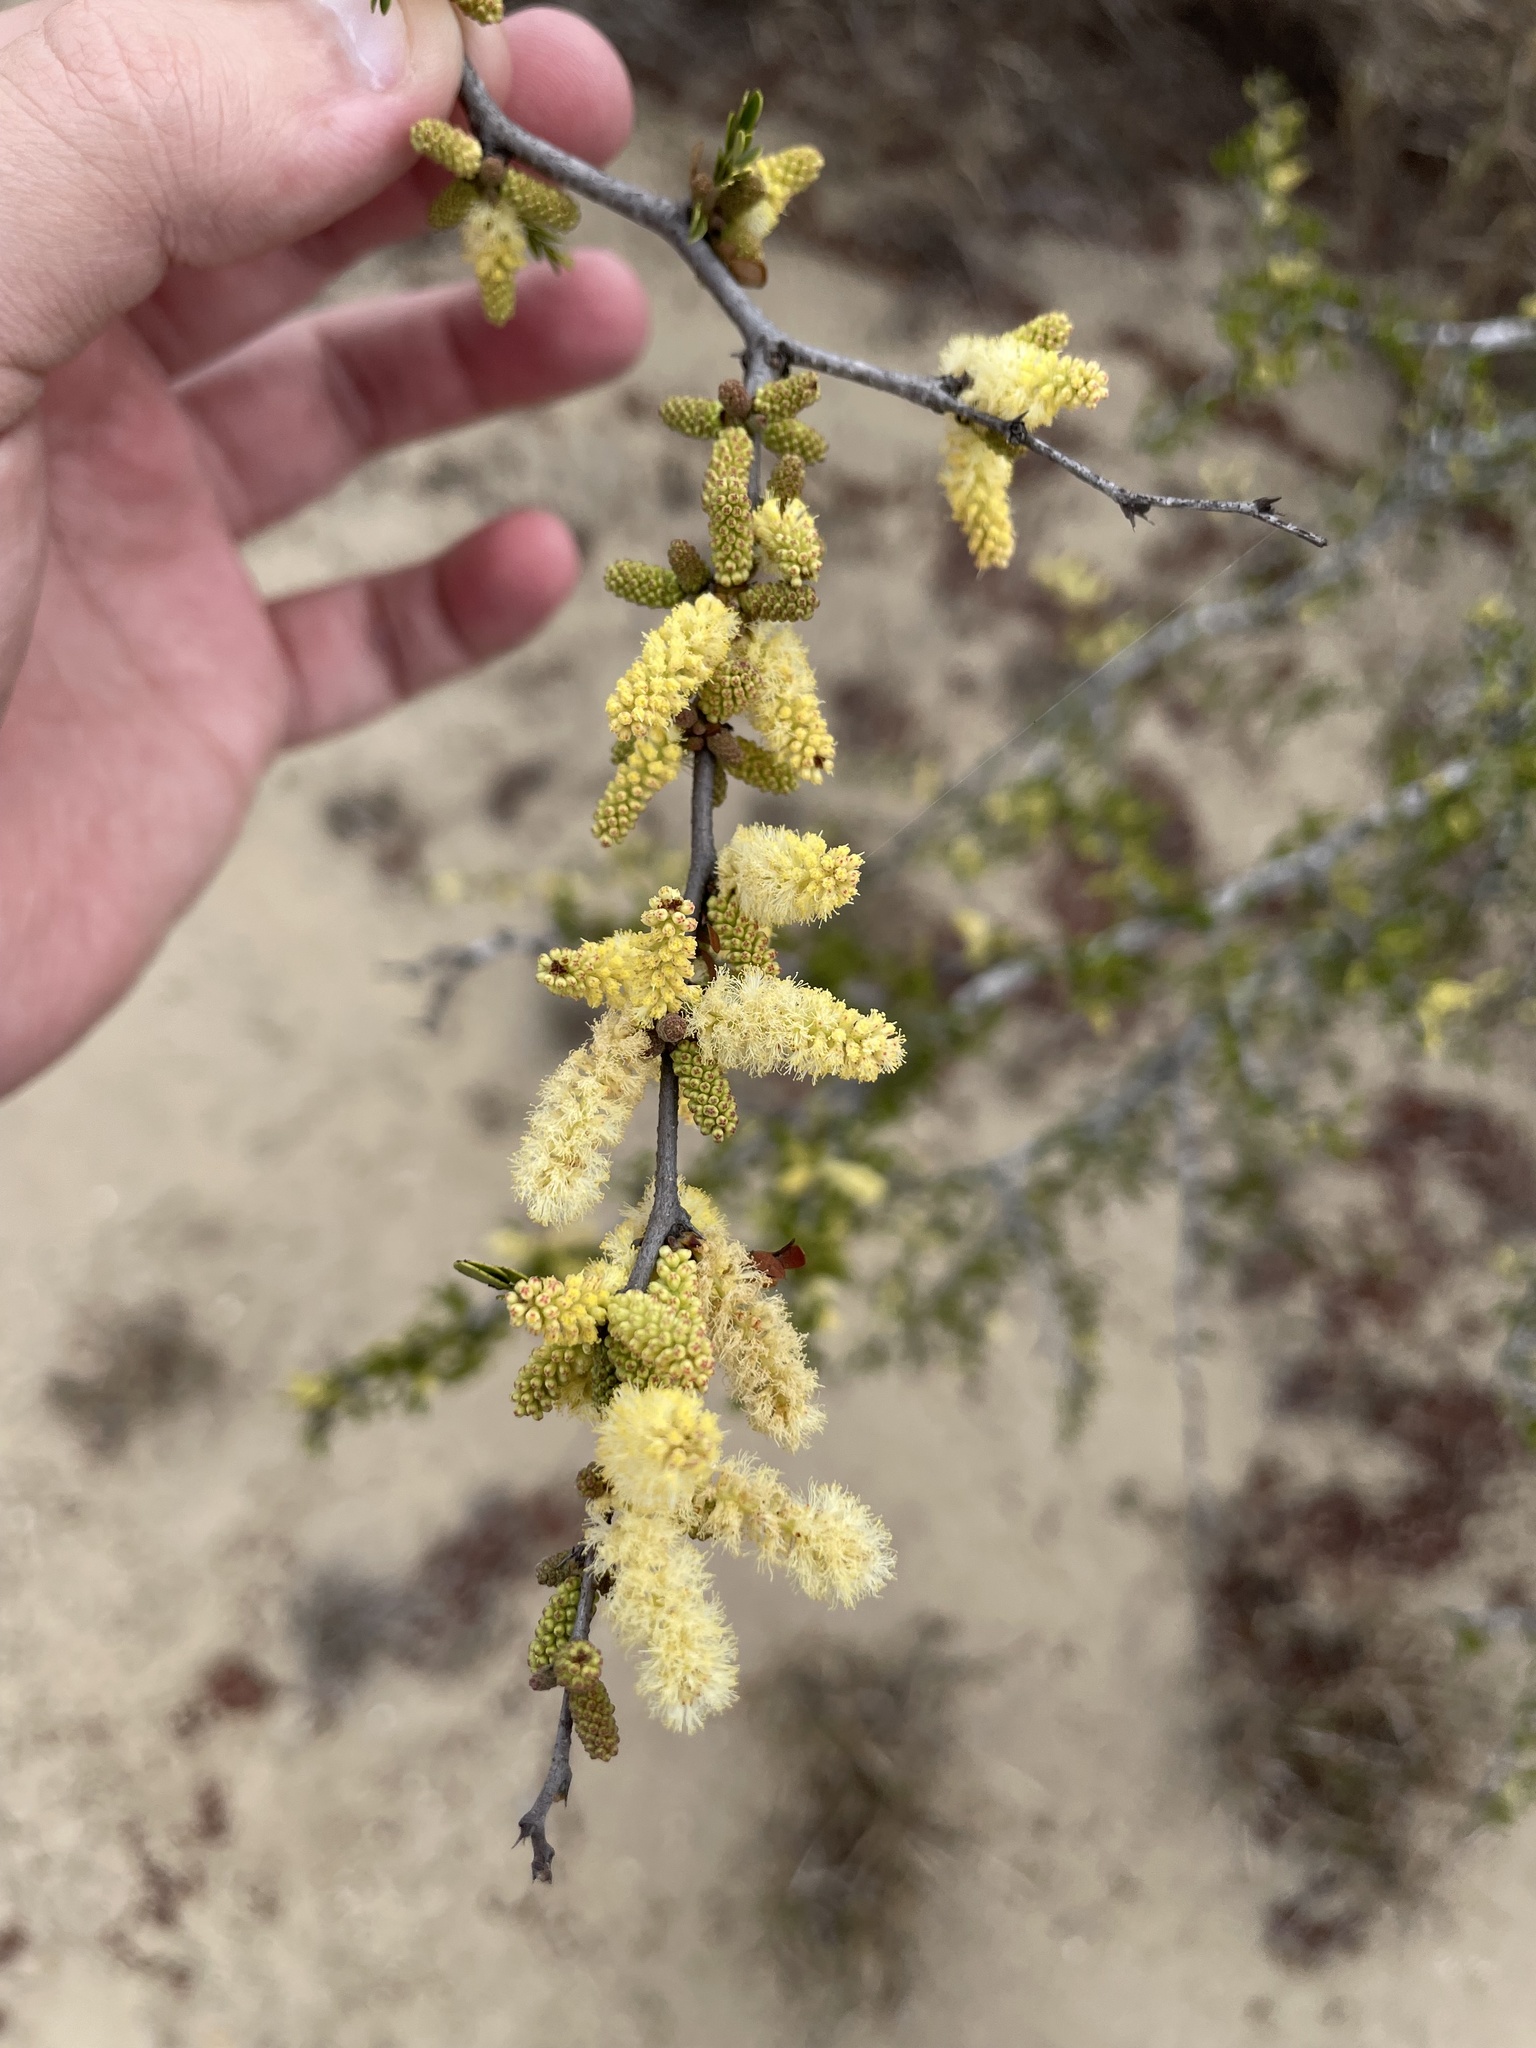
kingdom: Plantae
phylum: Tracheophyta
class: Magnoliopsida
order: Fabales
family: Fabaceae
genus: Vachellia
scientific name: Vachellia rigidula
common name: Blackbrush
